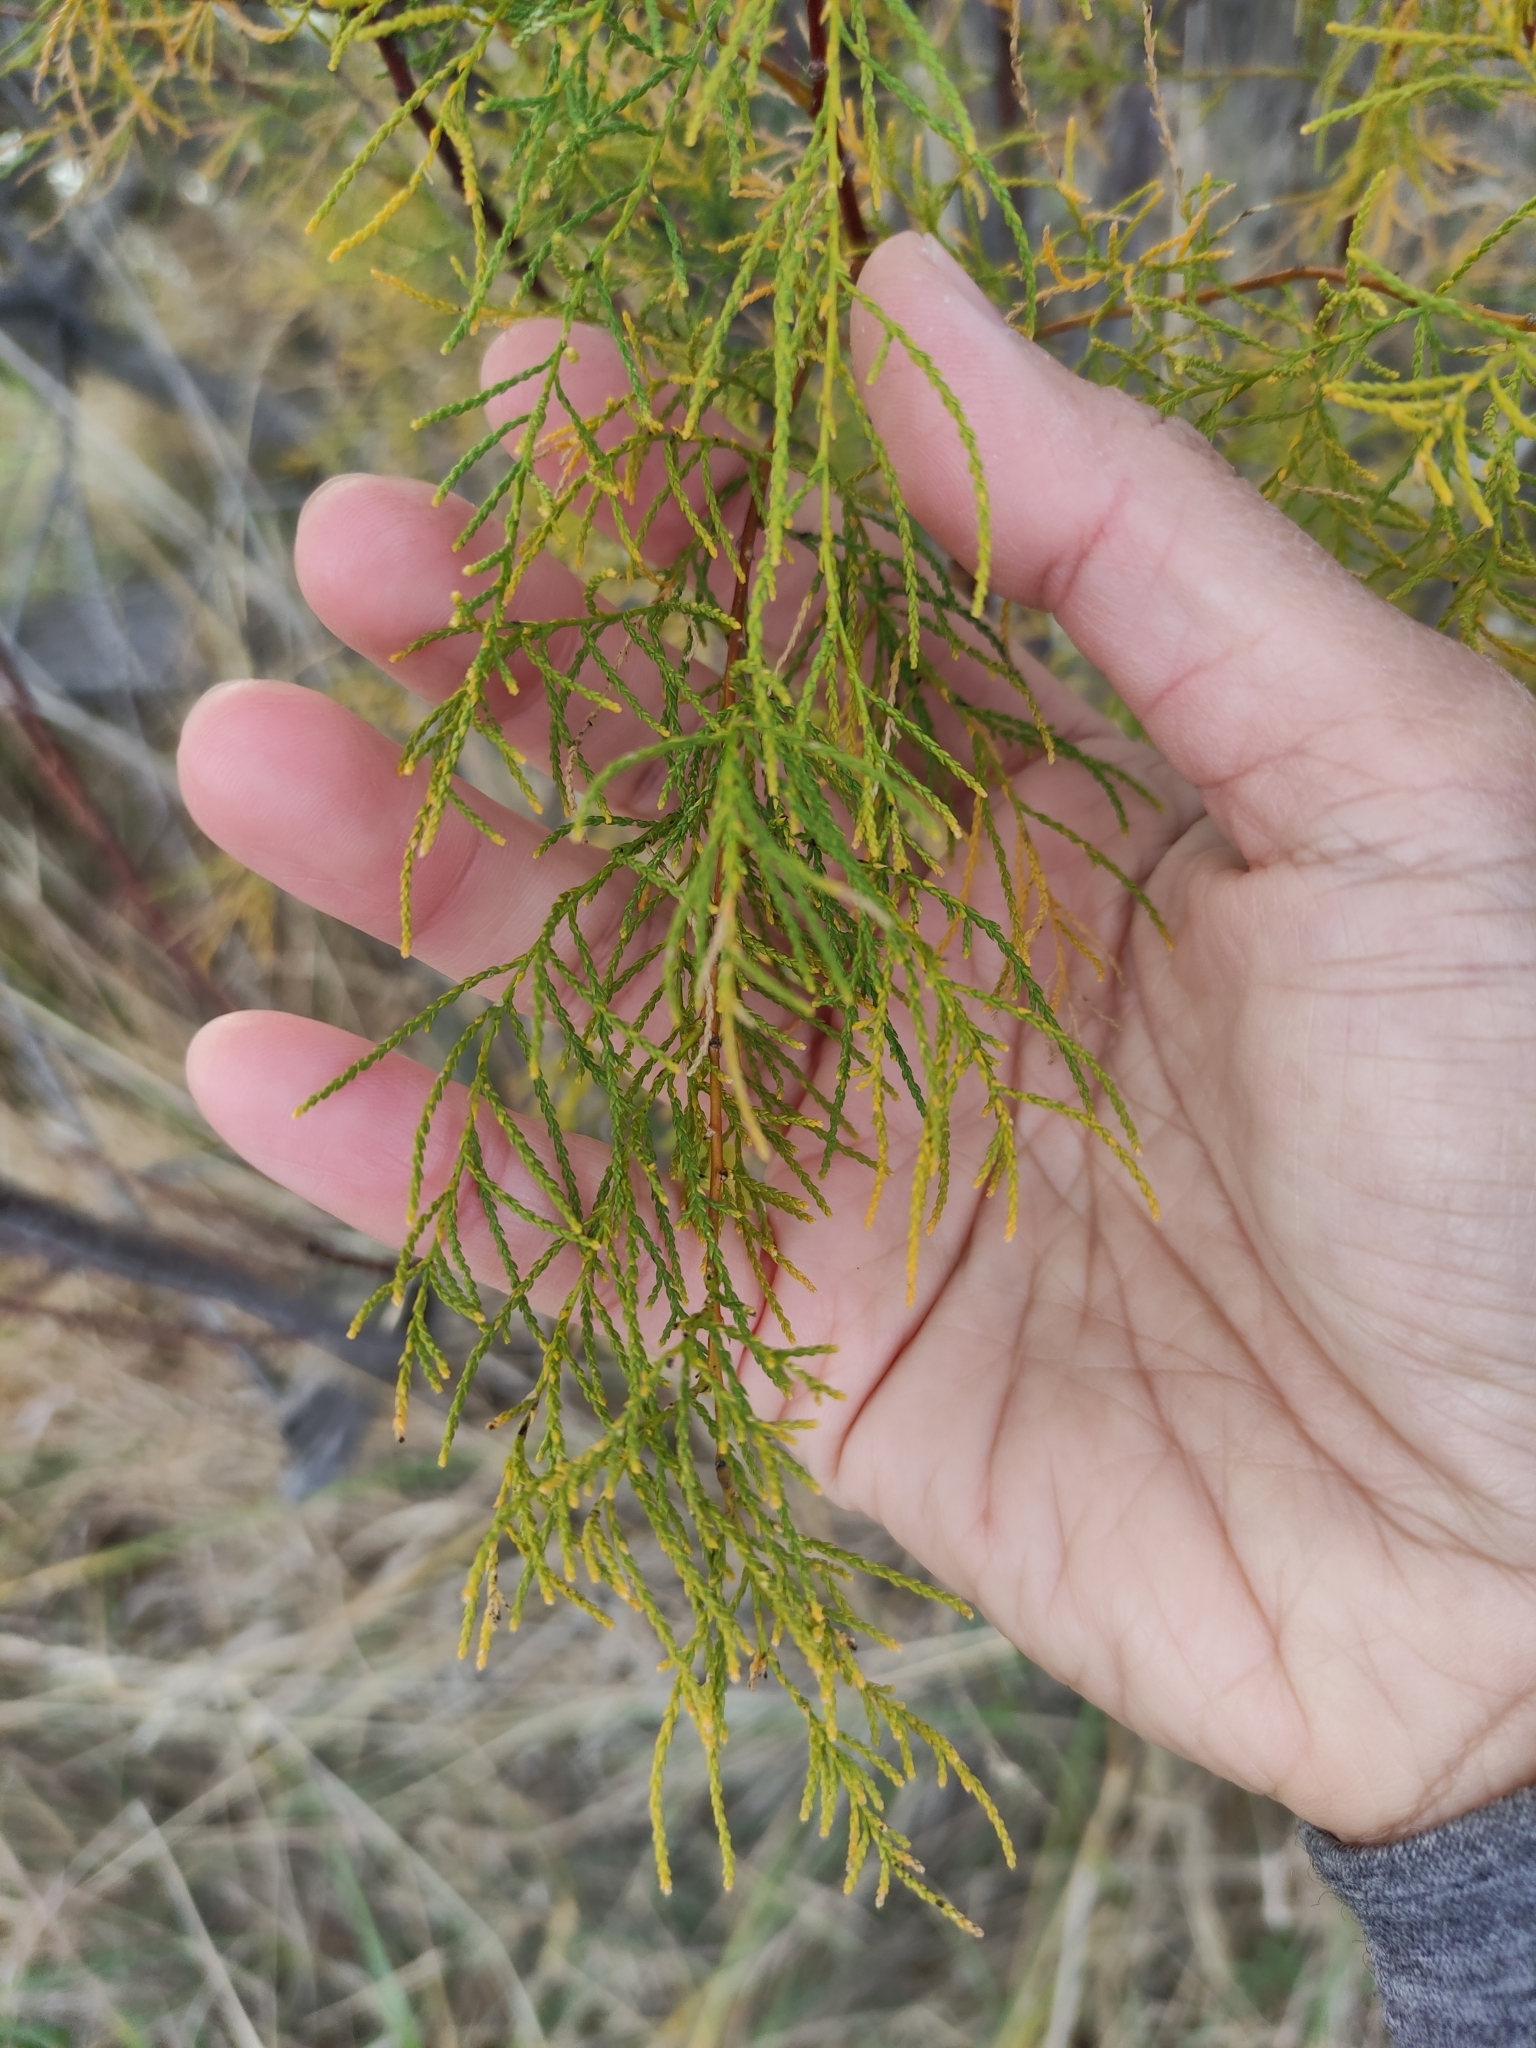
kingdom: Plantae
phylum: Tracheophyta
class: Magnoliopsida
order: Caryophyllales
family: Tamaricaceae
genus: Tamarix
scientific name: Tamarix
